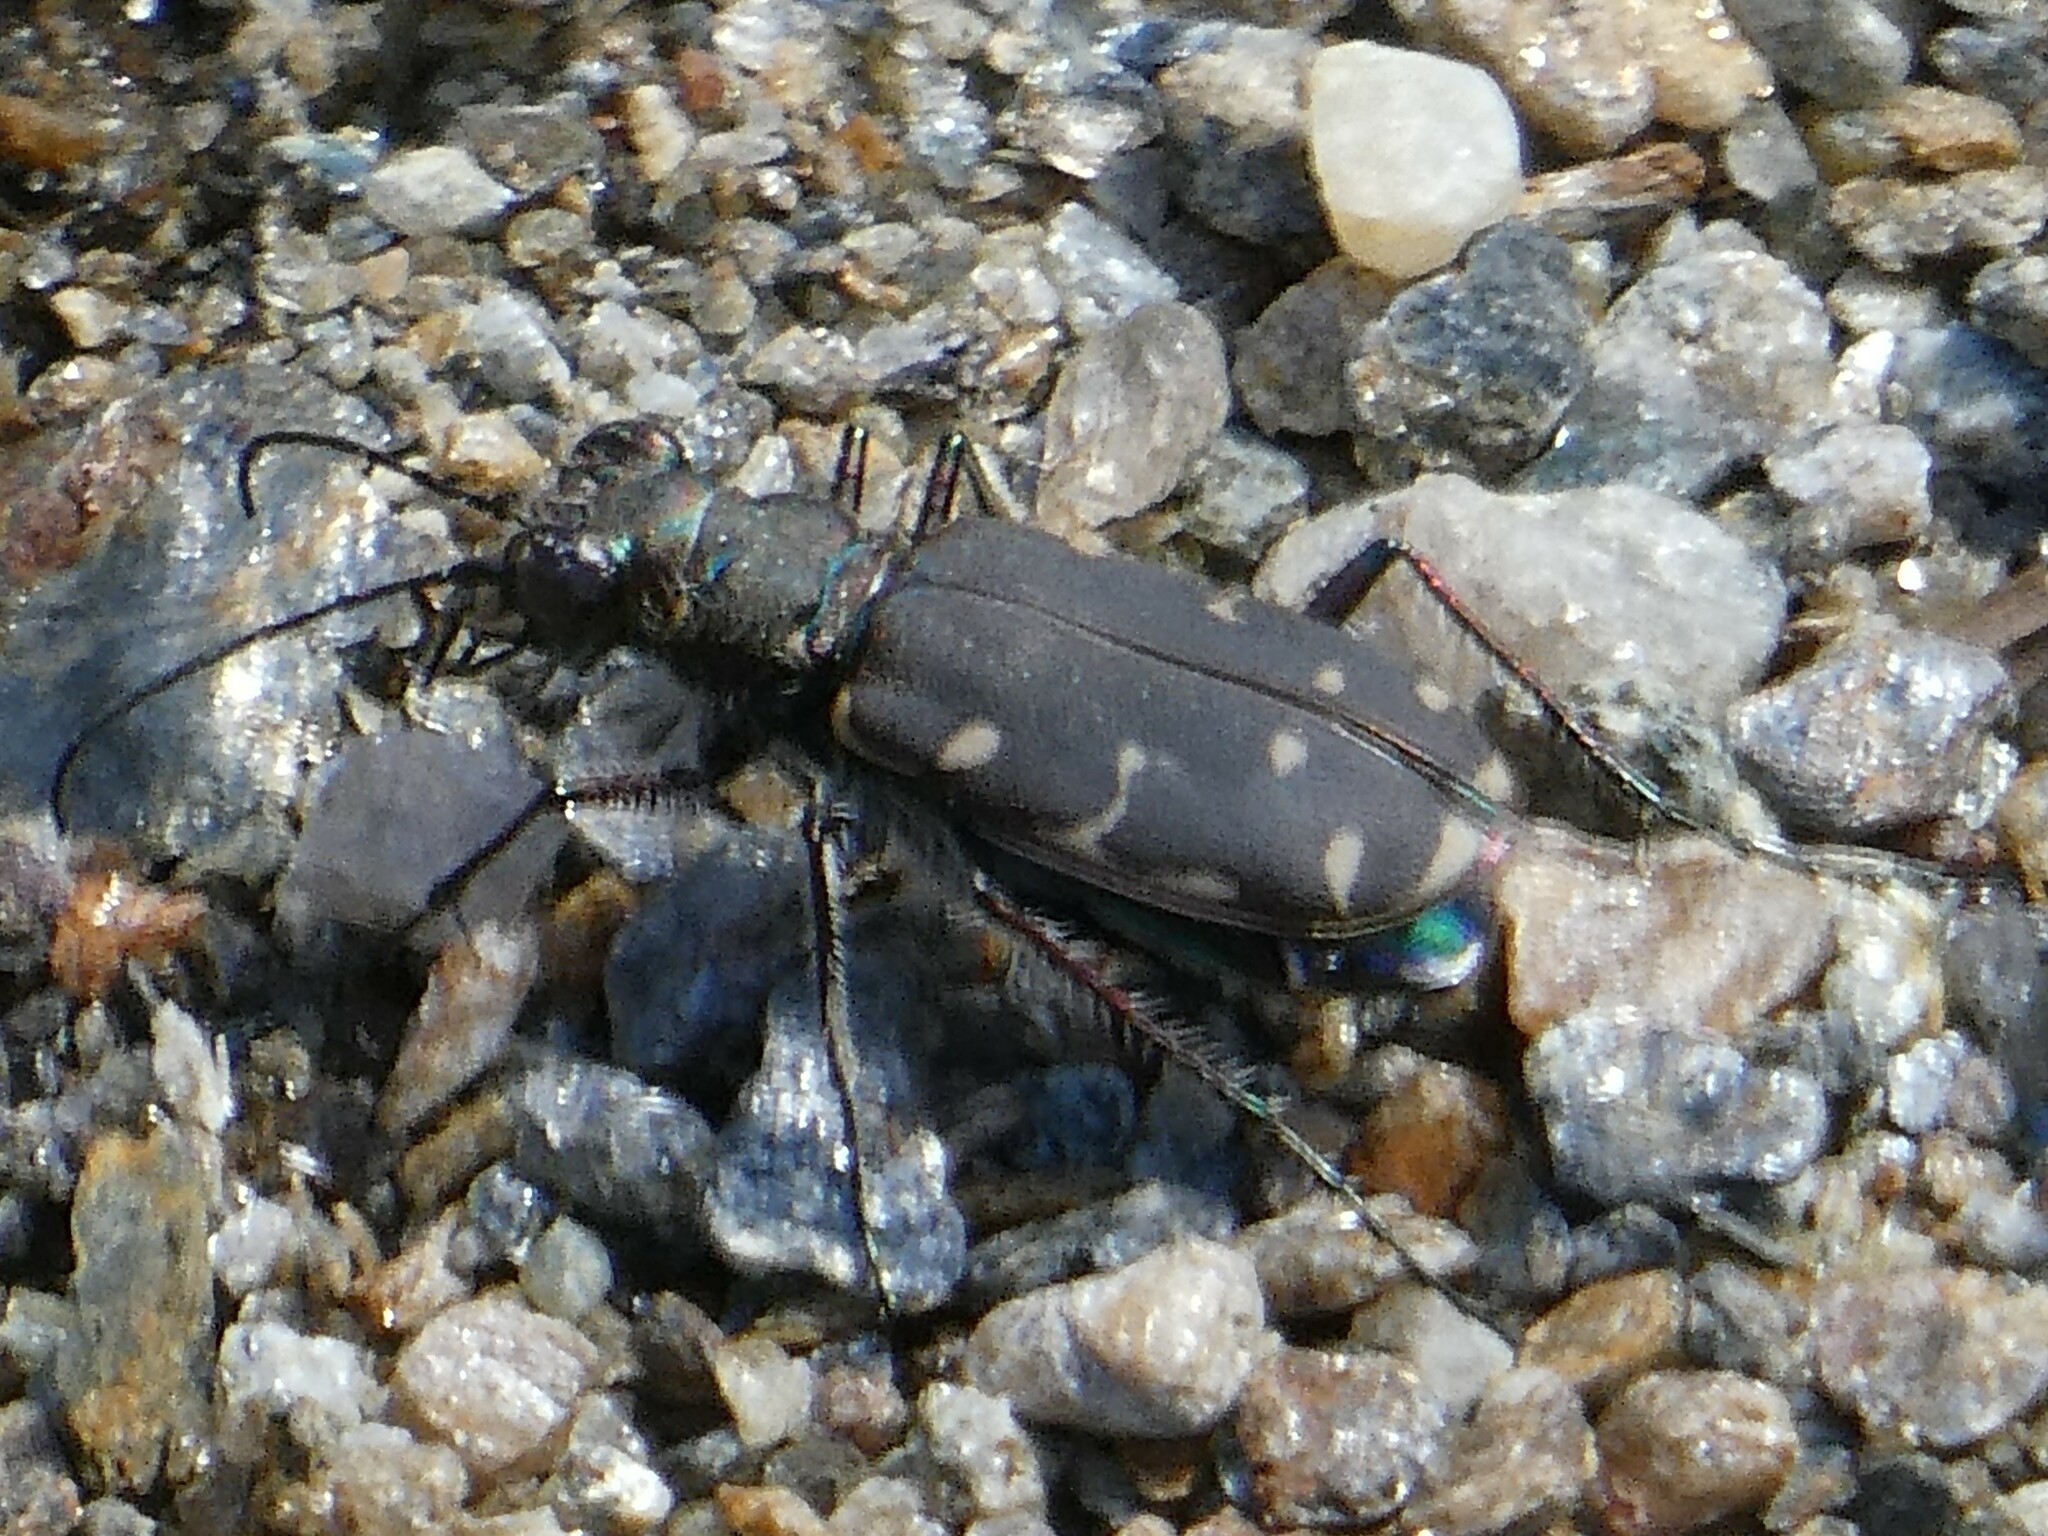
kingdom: Animalia
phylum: Arthropoda
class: Insecta
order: Coleoptera
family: Carabidae
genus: Cicindela
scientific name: Cicindela duodecimguttata
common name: Twelve-spotted tiger beetle
